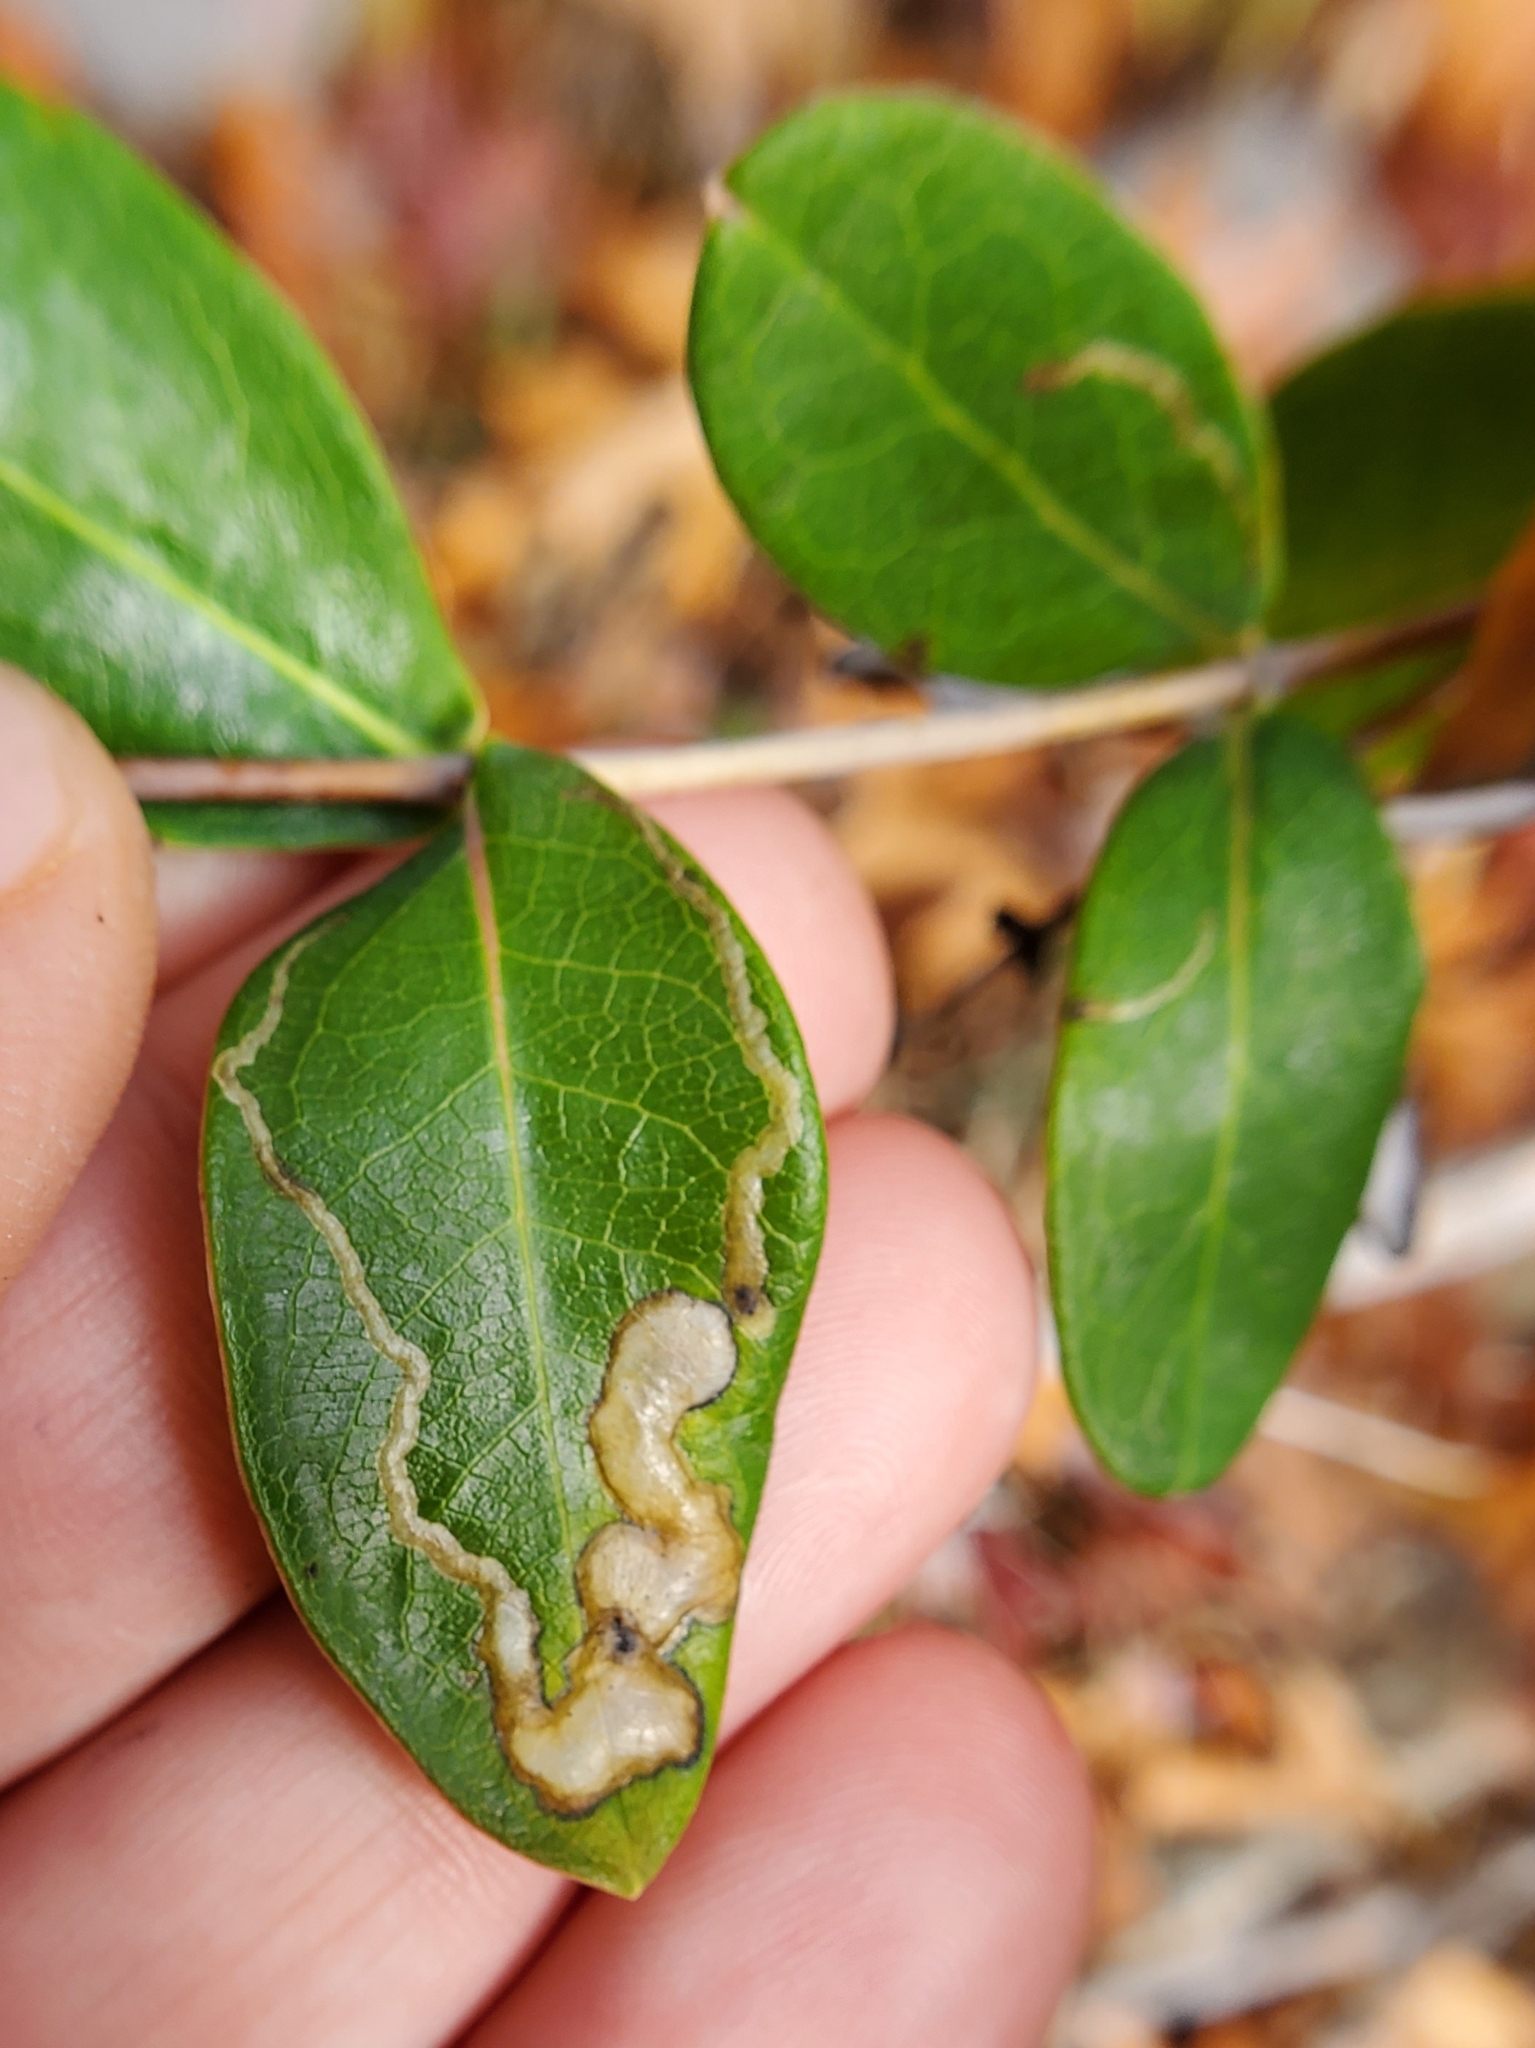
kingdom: Animalia
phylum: Arthropoda
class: Insecta
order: Diptera
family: Agromyzidae
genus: Aulagromyza
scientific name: Aulagromyza orbitalis
